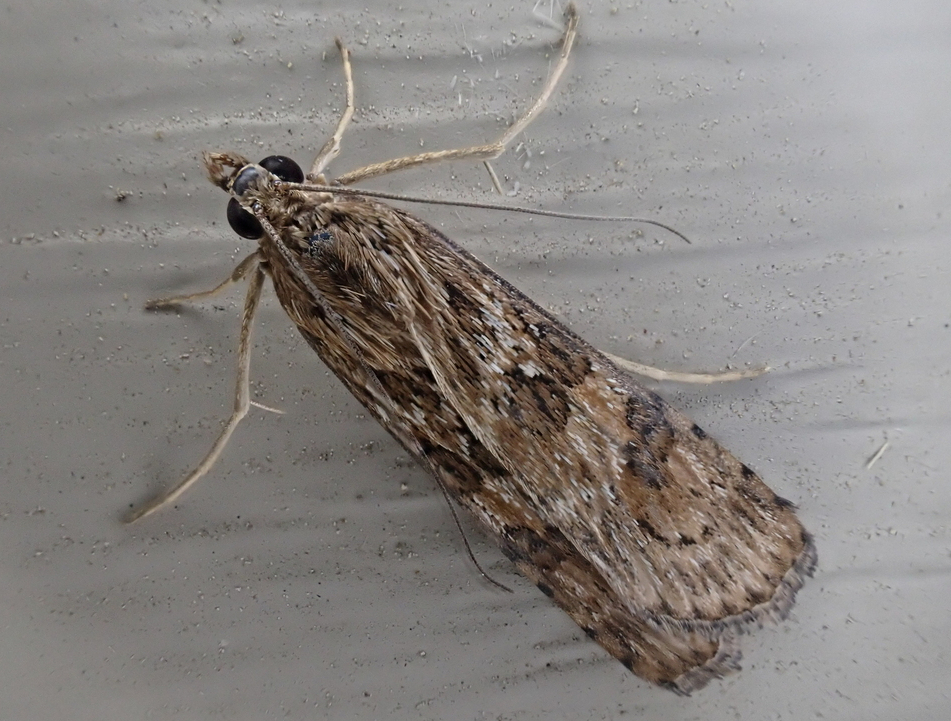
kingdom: Animalia
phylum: Arthropoda
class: Insecta
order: Lepidoptera
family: Crambidae
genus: Nomophila
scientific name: Nomophila nearctica
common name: American rush veneer
